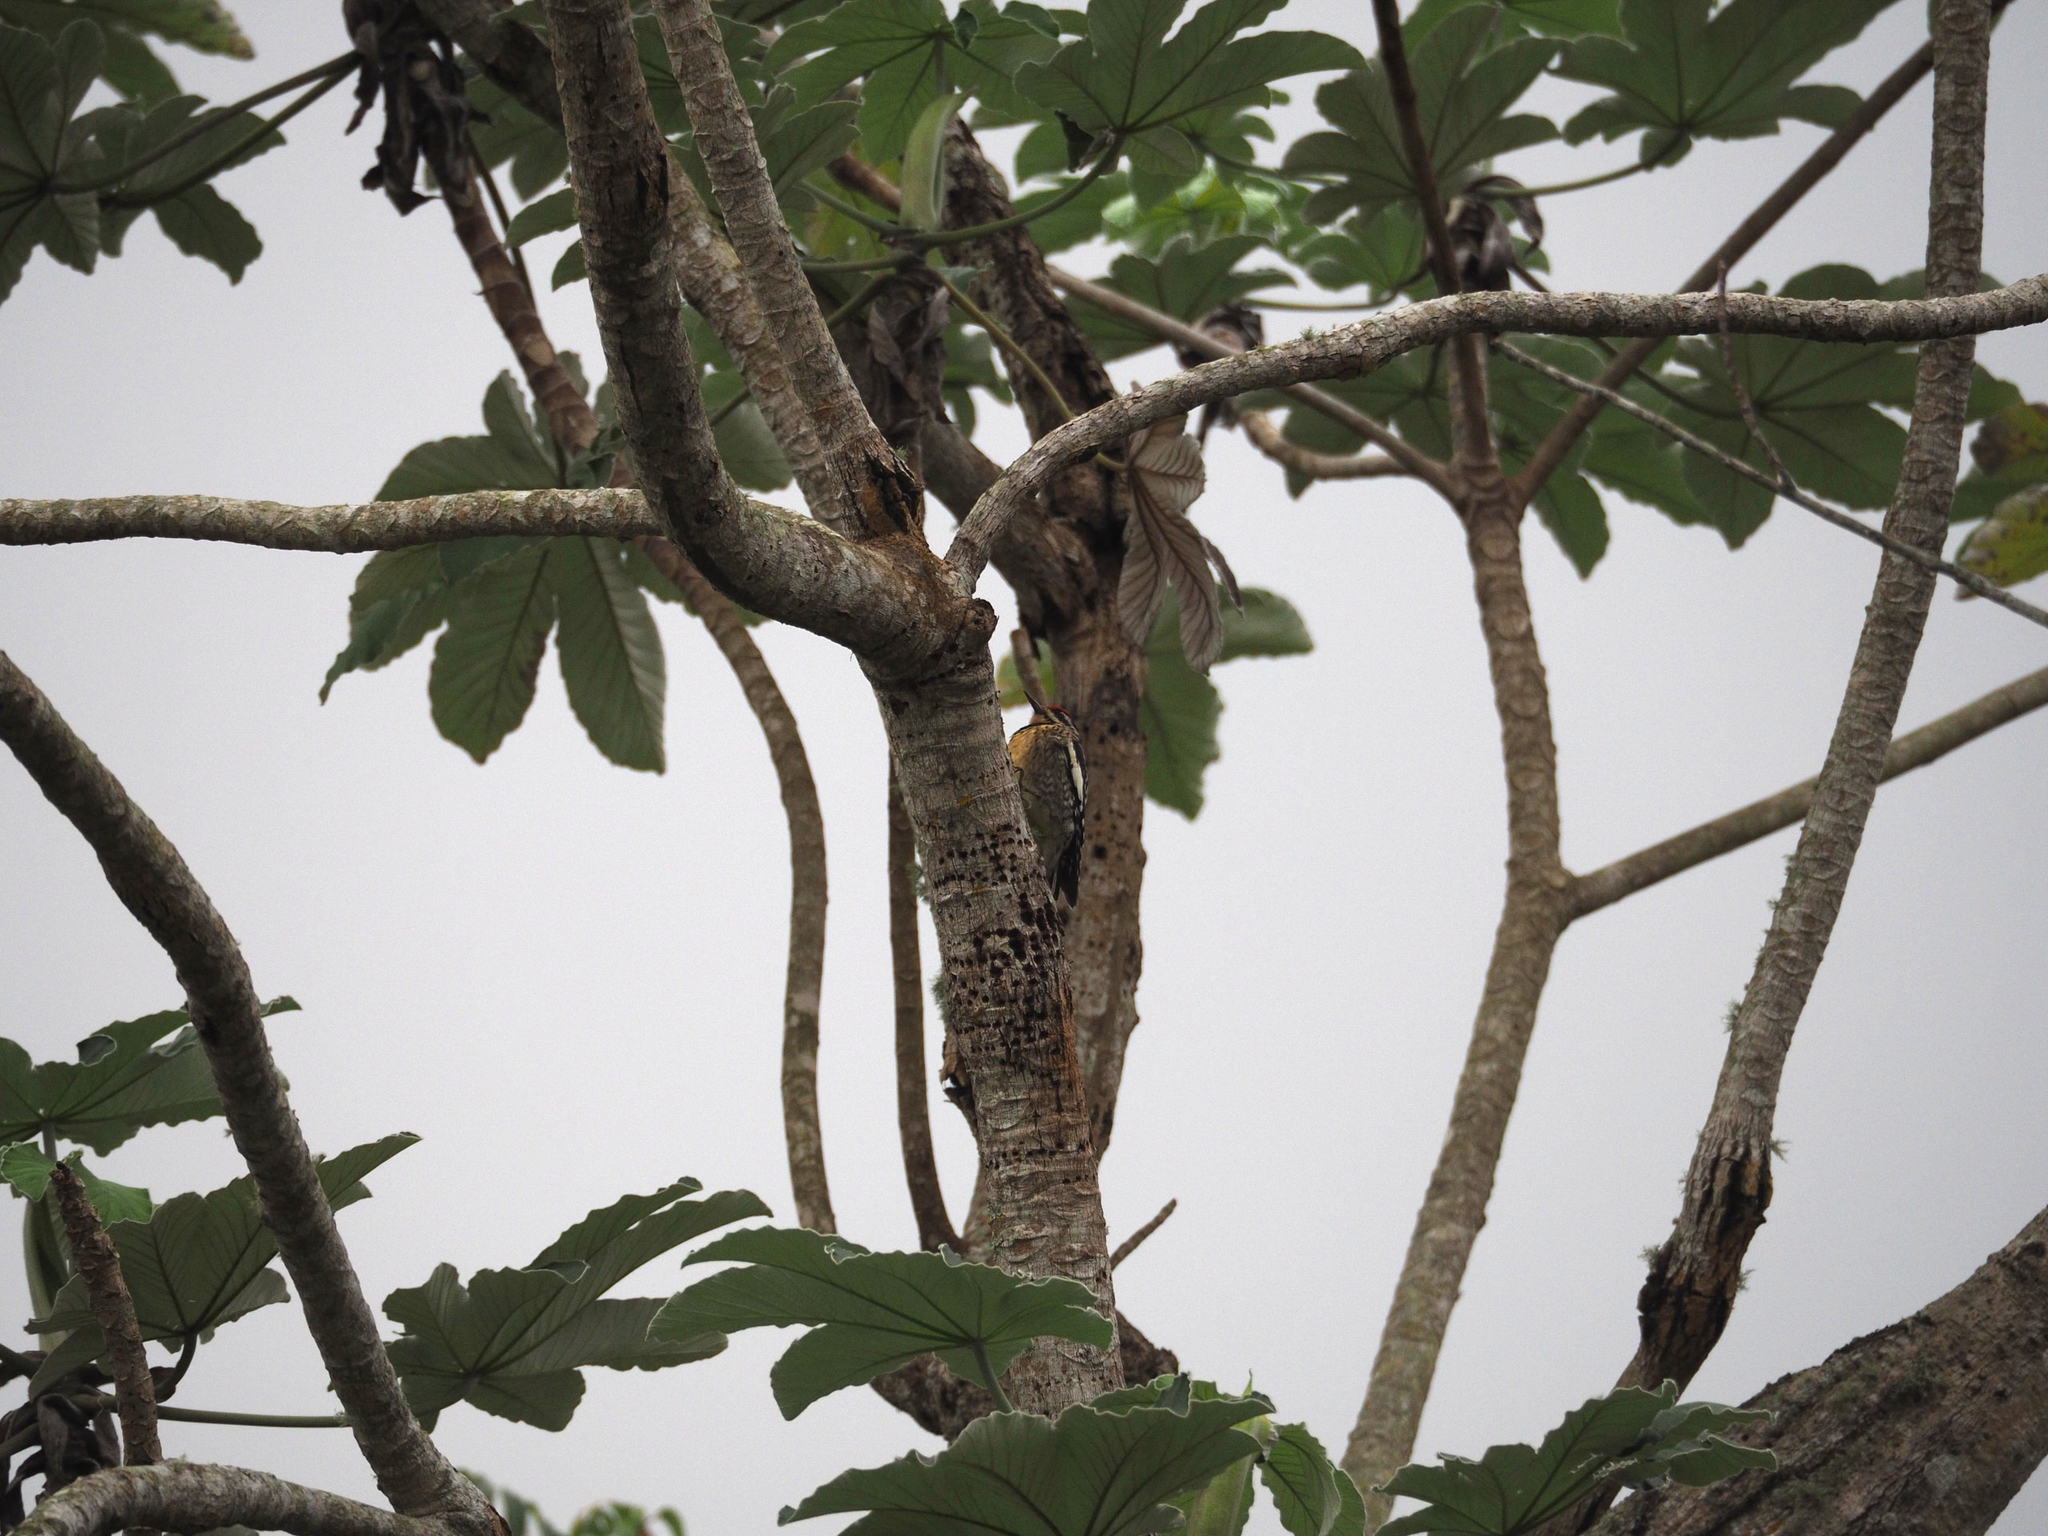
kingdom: Plantae
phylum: Tracheophyta
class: Magnoliopsida
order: Rosales
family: Urticaceae
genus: Cecropia
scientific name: Cecropia schreberiana
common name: Trumpet tree
